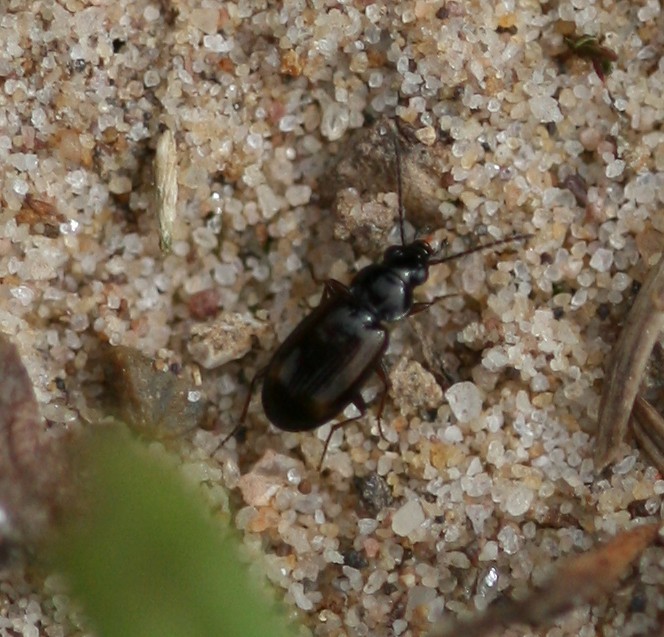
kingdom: Animalia
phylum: Arthropoda
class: Insecta
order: Coleoptera
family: Carabidae
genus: Bembidion
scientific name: Bembidion
